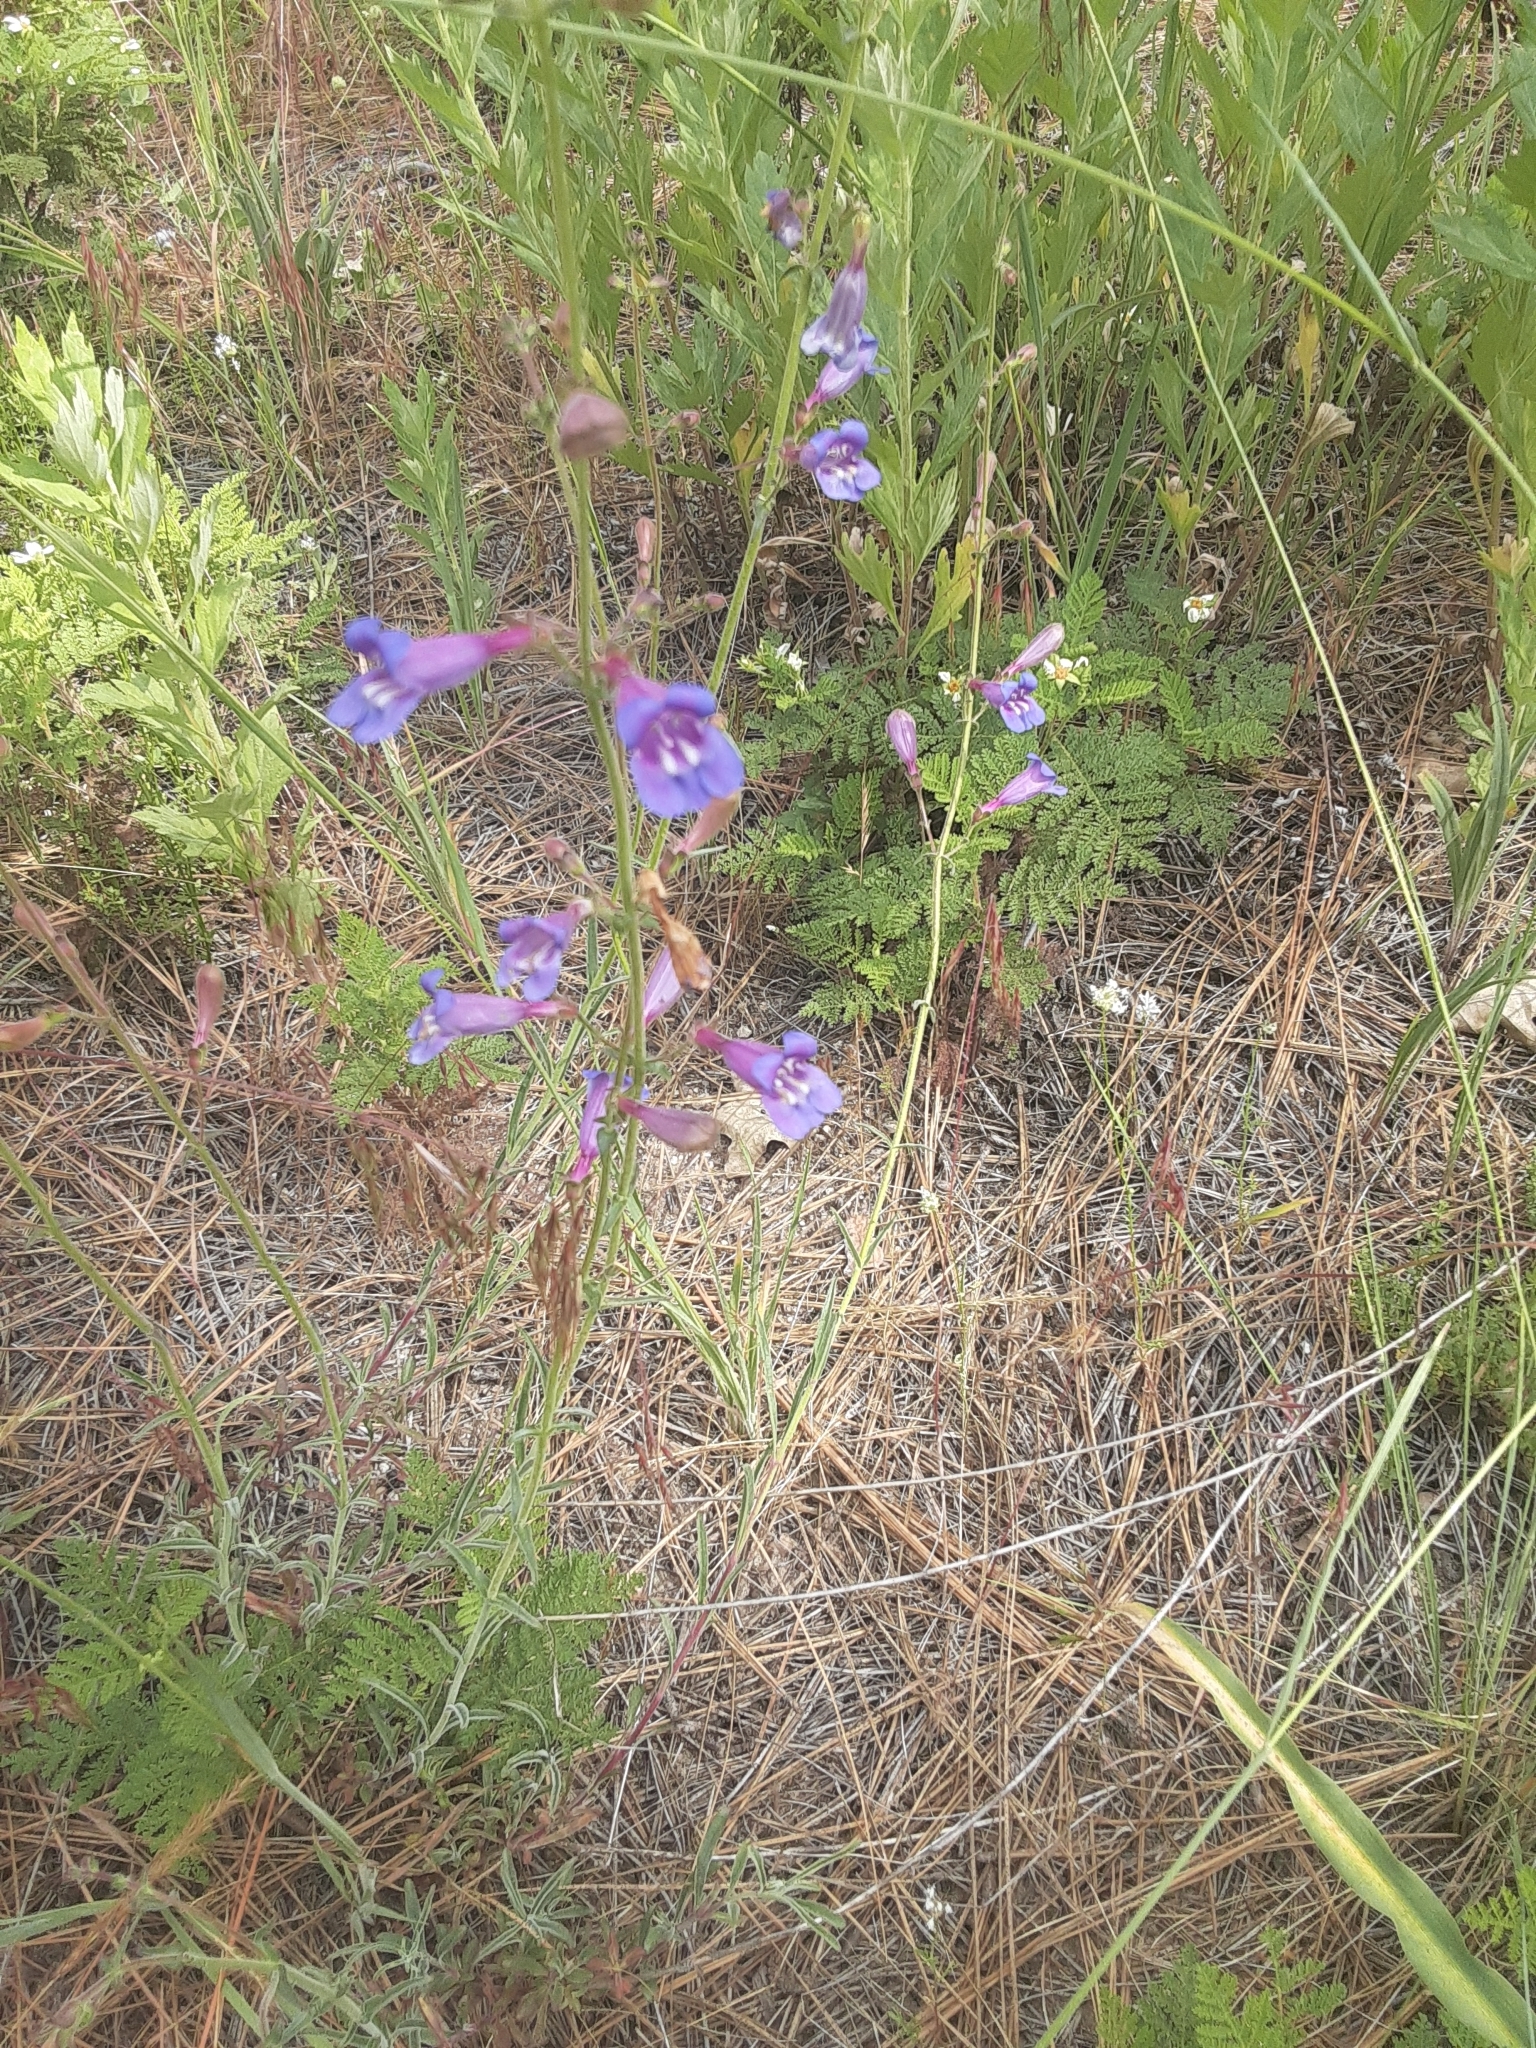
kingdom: Plantae
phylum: Tracheophyta
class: Magnoliopsida
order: Lamiales
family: Plantaginaceae
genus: Penstemon
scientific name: Penstemon laetus
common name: Gay penstemon
